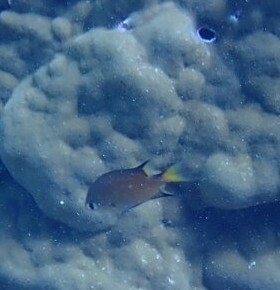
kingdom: Animalia
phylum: Chordata
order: Perciformes
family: Pomacentridae
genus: Chromis
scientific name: Chromis atripes
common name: Dark-fin chromis
